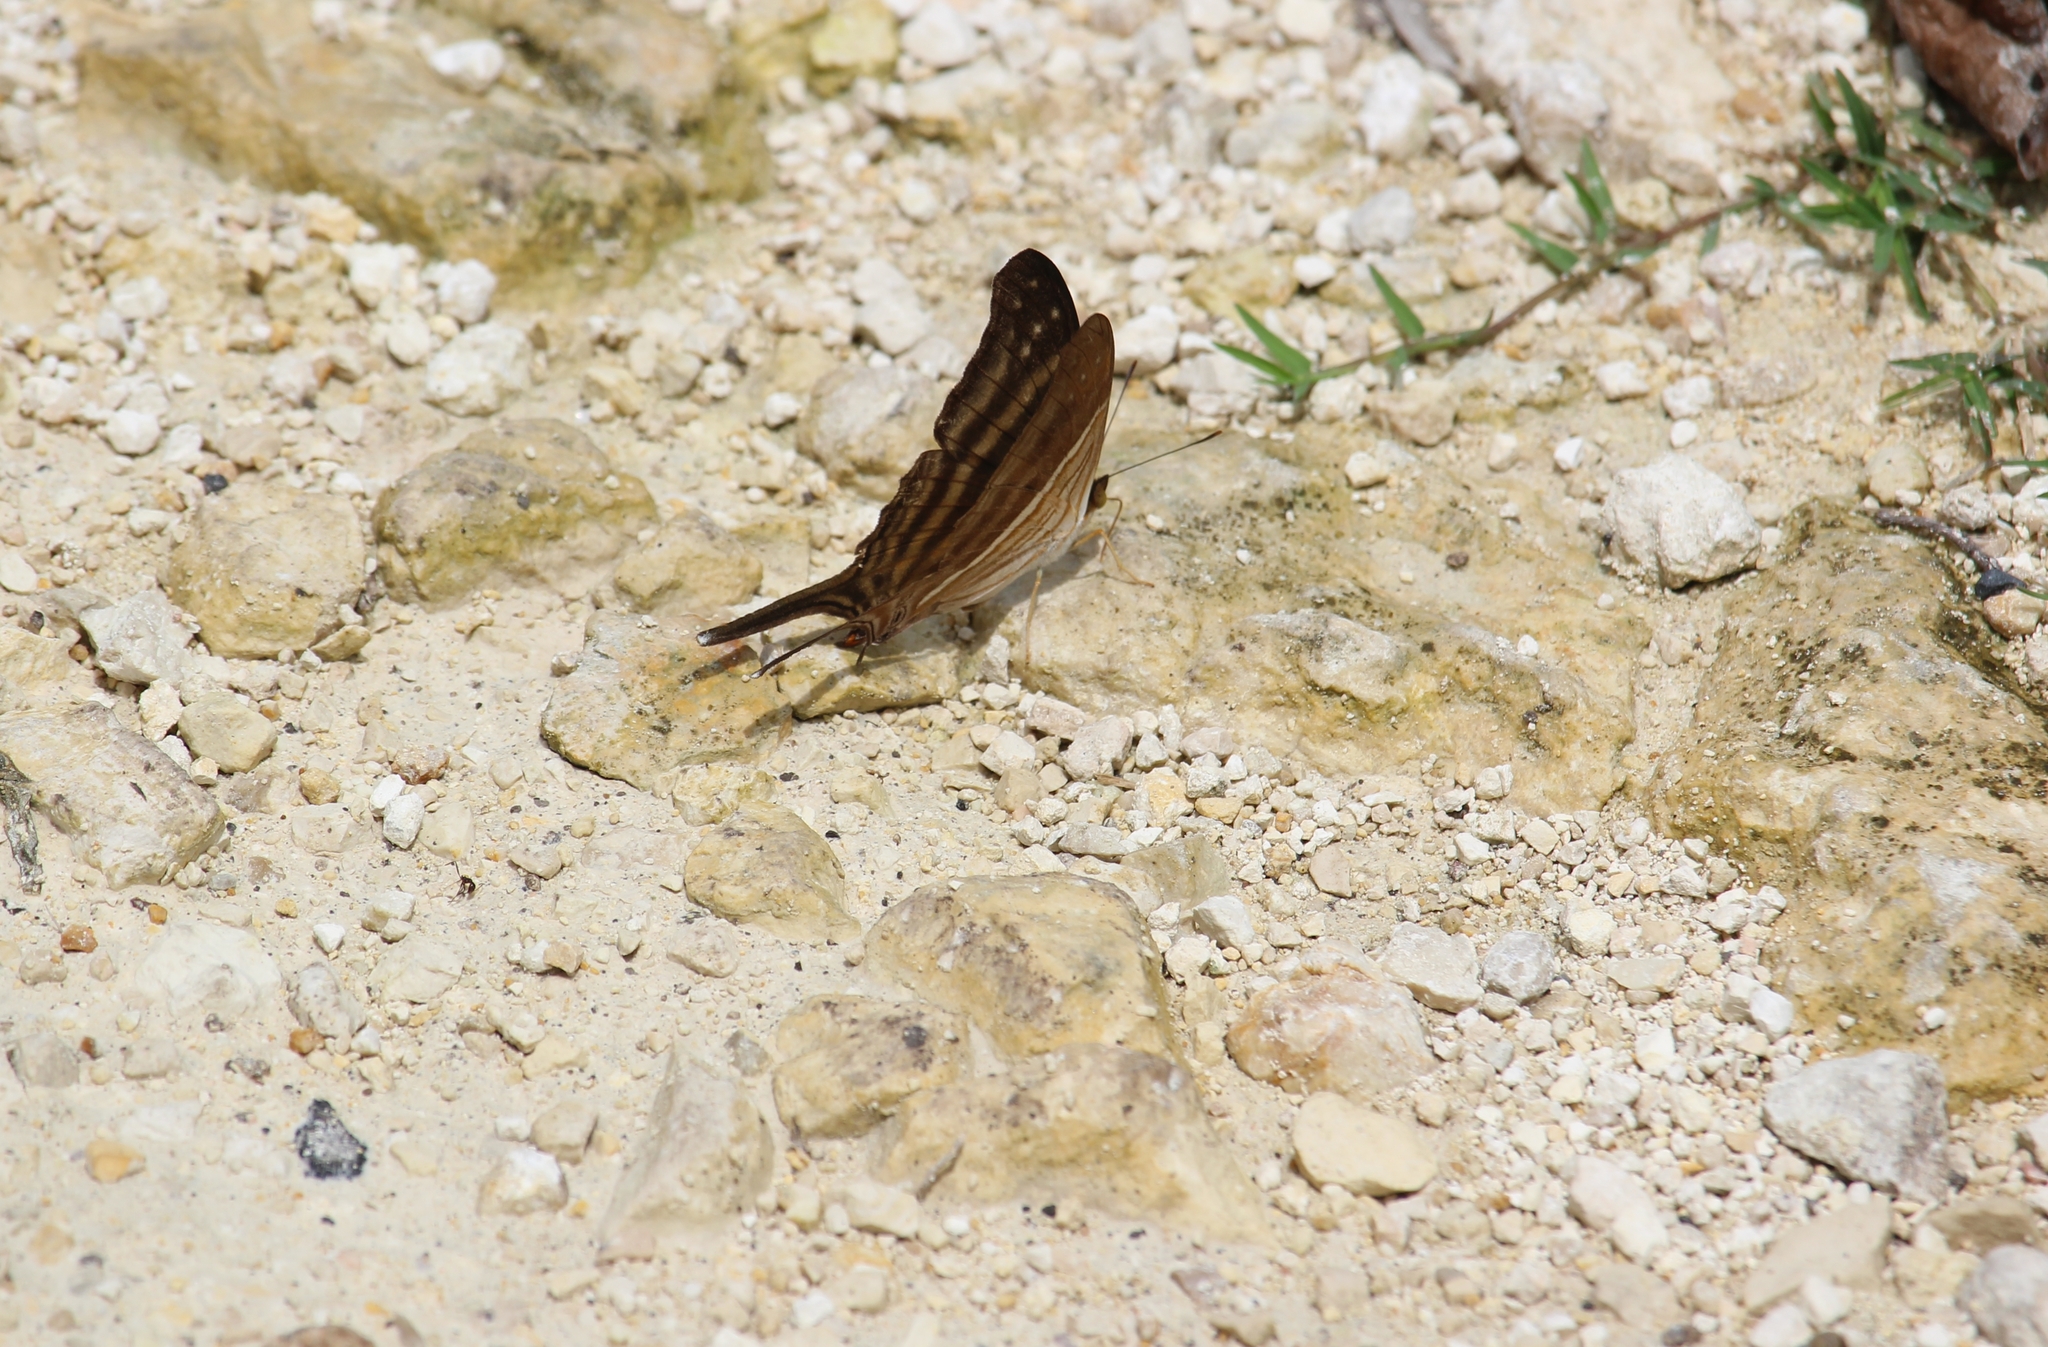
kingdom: Animalia
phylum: Arthropoda
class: Insecta
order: Lepidoptera
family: Nymphalidae
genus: Marpesia
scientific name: Marpesia chiron
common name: Many-banded daggerwing
